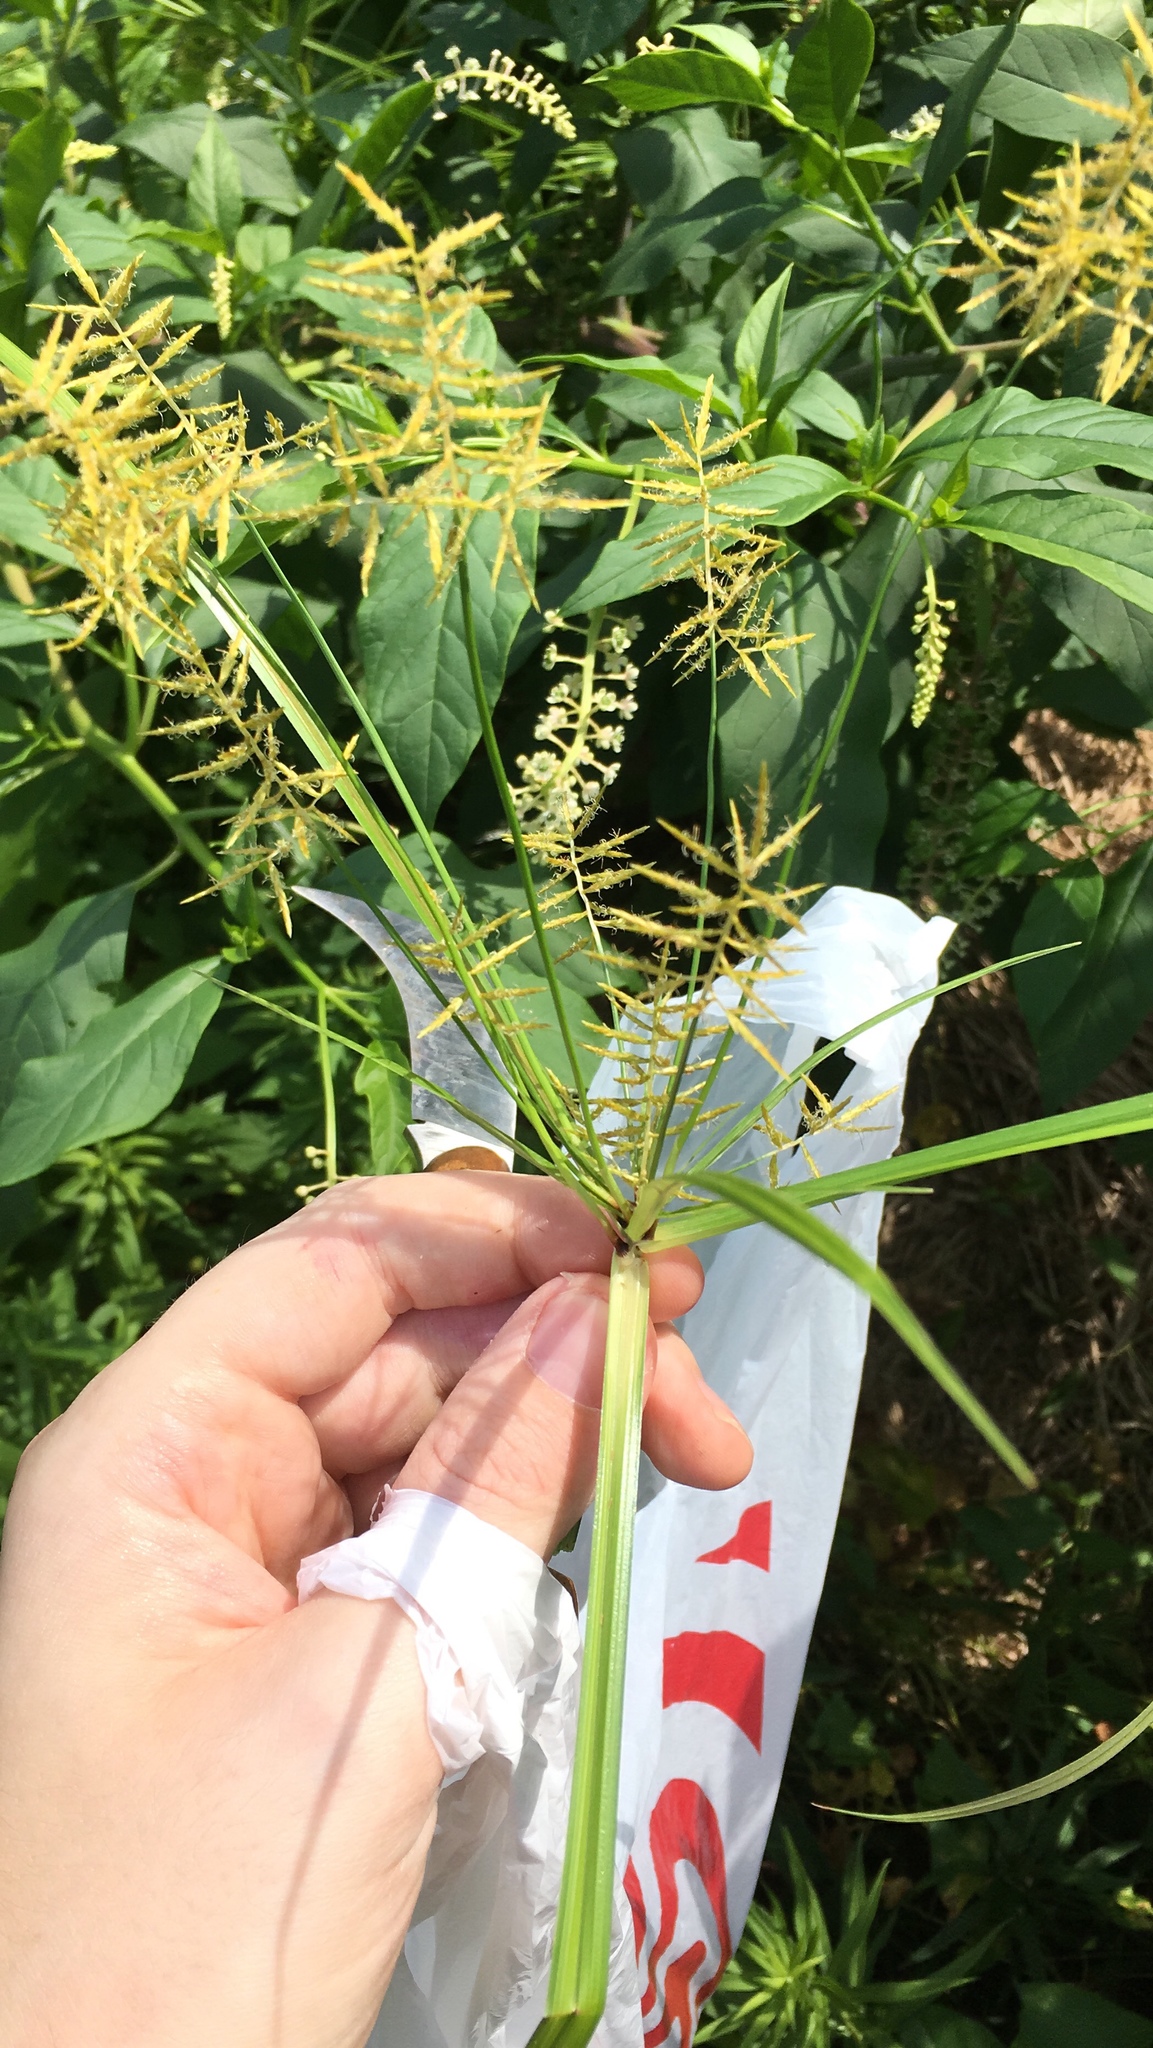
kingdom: Plantae
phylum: Tracheophyta
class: Liliopsida
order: Poales
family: Cyperaceae
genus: Cyperus
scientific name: Cyperus esculentus
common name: Yellow nutsedge
